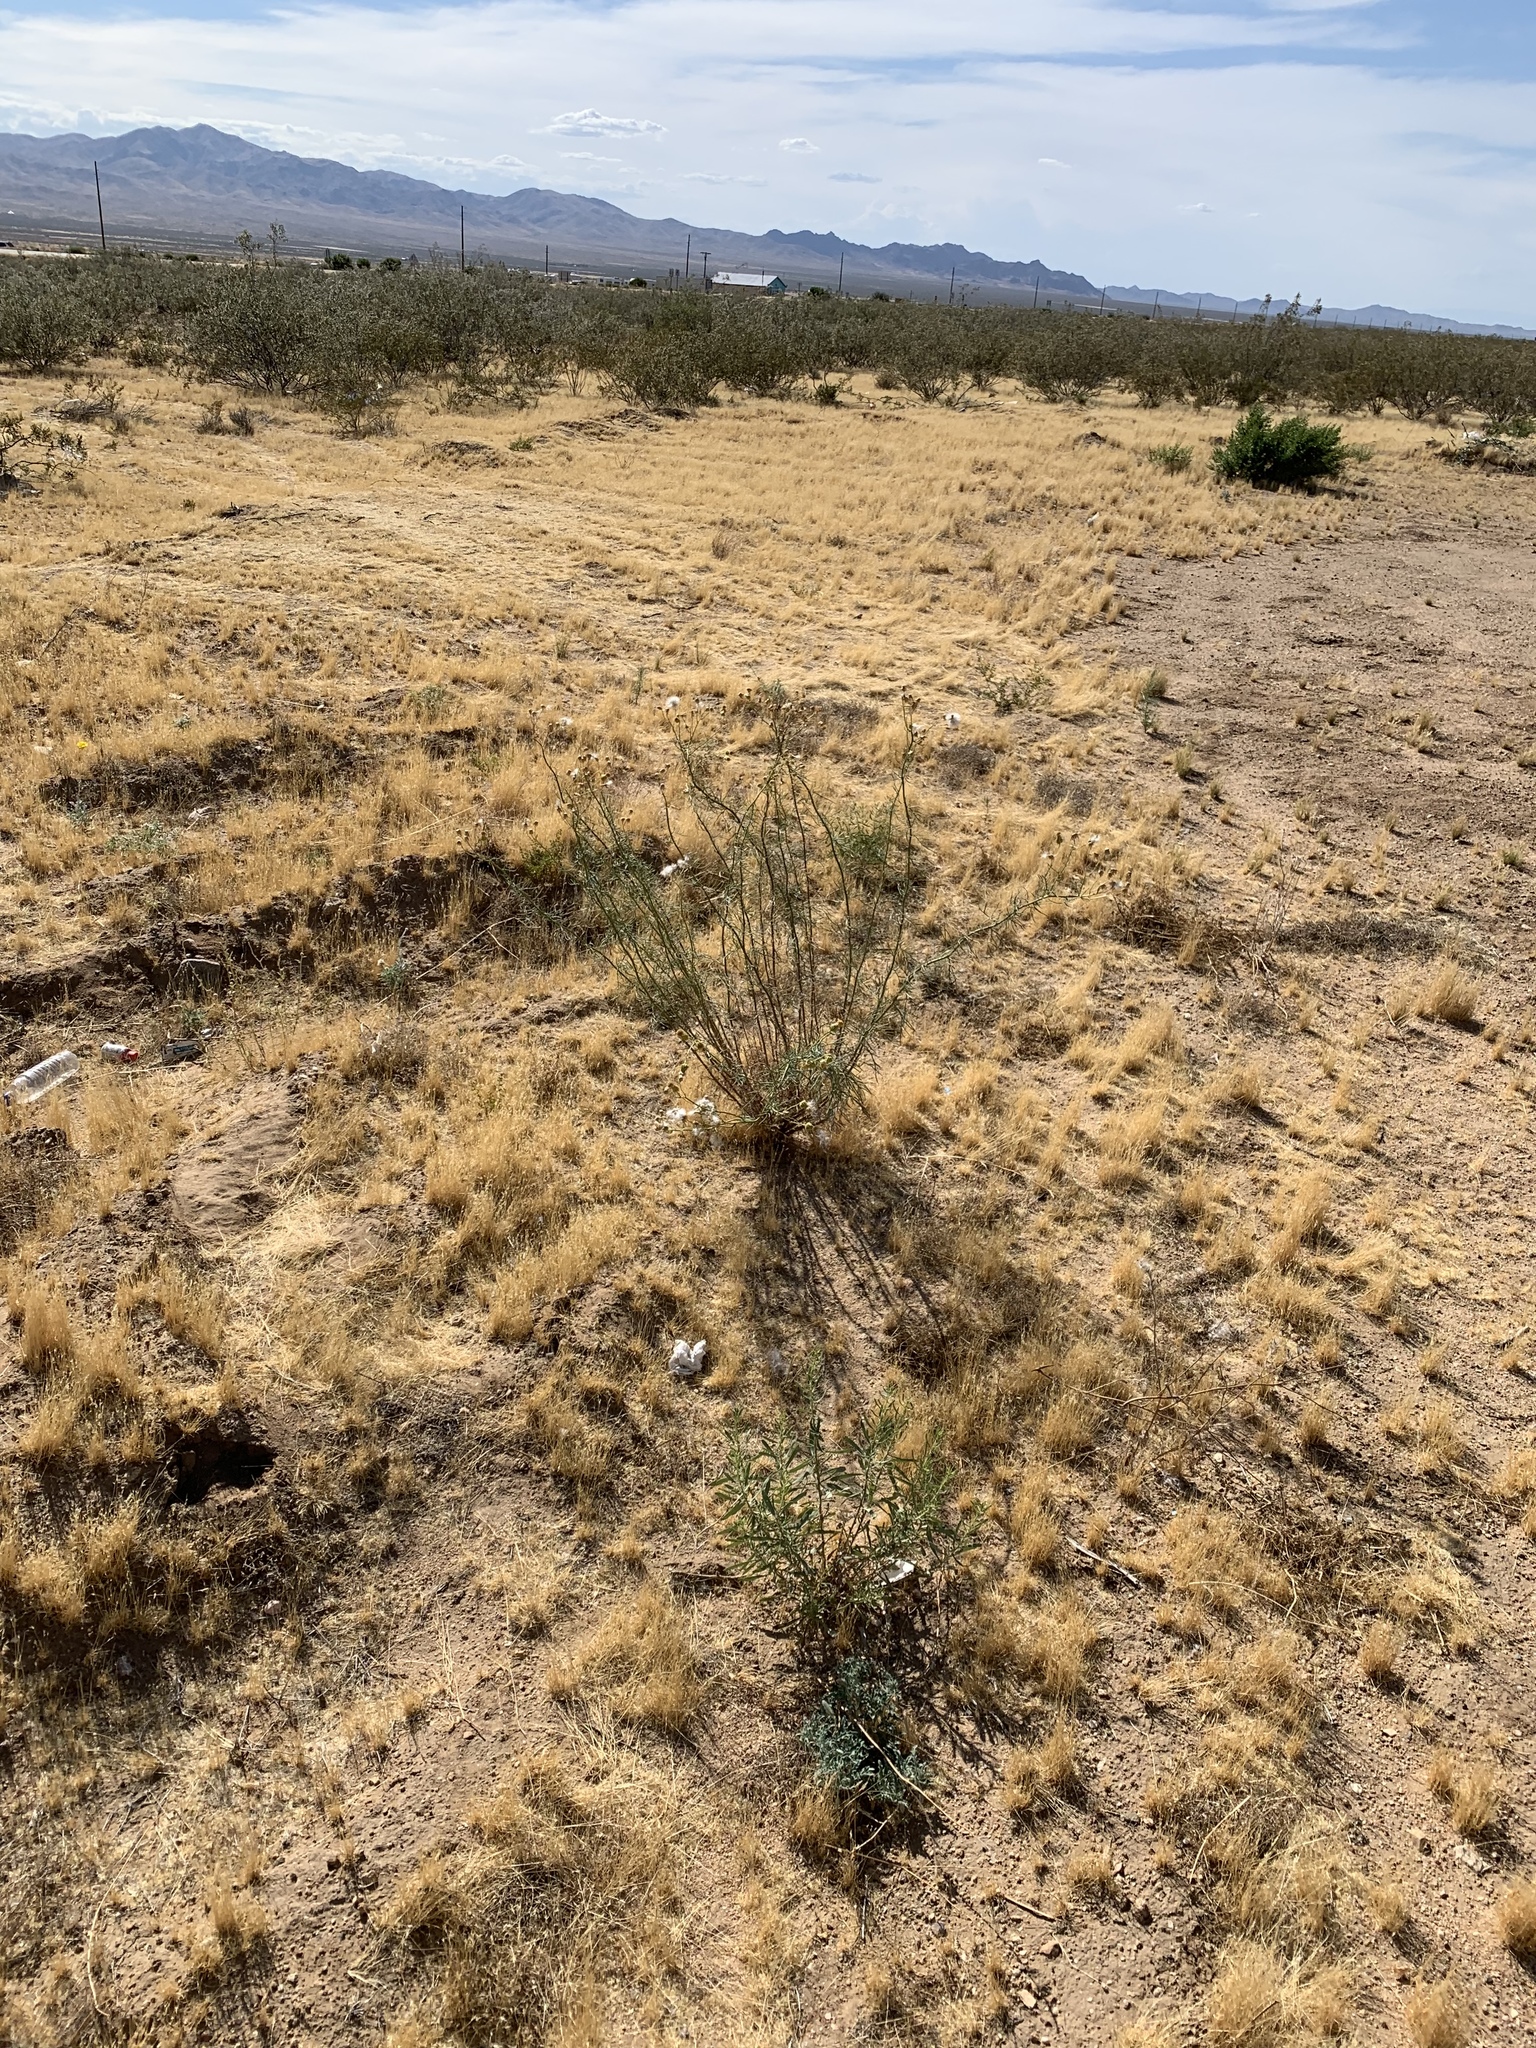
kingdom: Plantae
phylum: Tracheophyta
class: Magnoliopsida
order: Asterales
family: Asteraceae
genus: Senecio
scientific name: Senecio flaccidus
